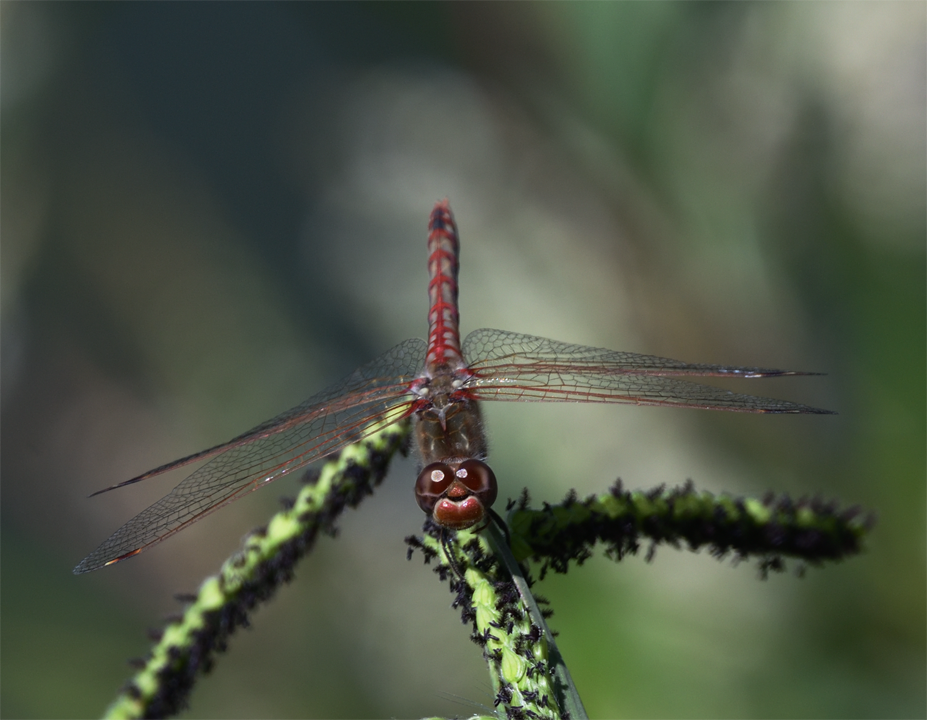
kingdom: Animalia
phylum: Arthropoda
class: Insecta
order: Odonata
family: Libellulidae
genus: Sympetrum
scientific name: Sympetrum corruptum
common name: Variegated meadowhawk
